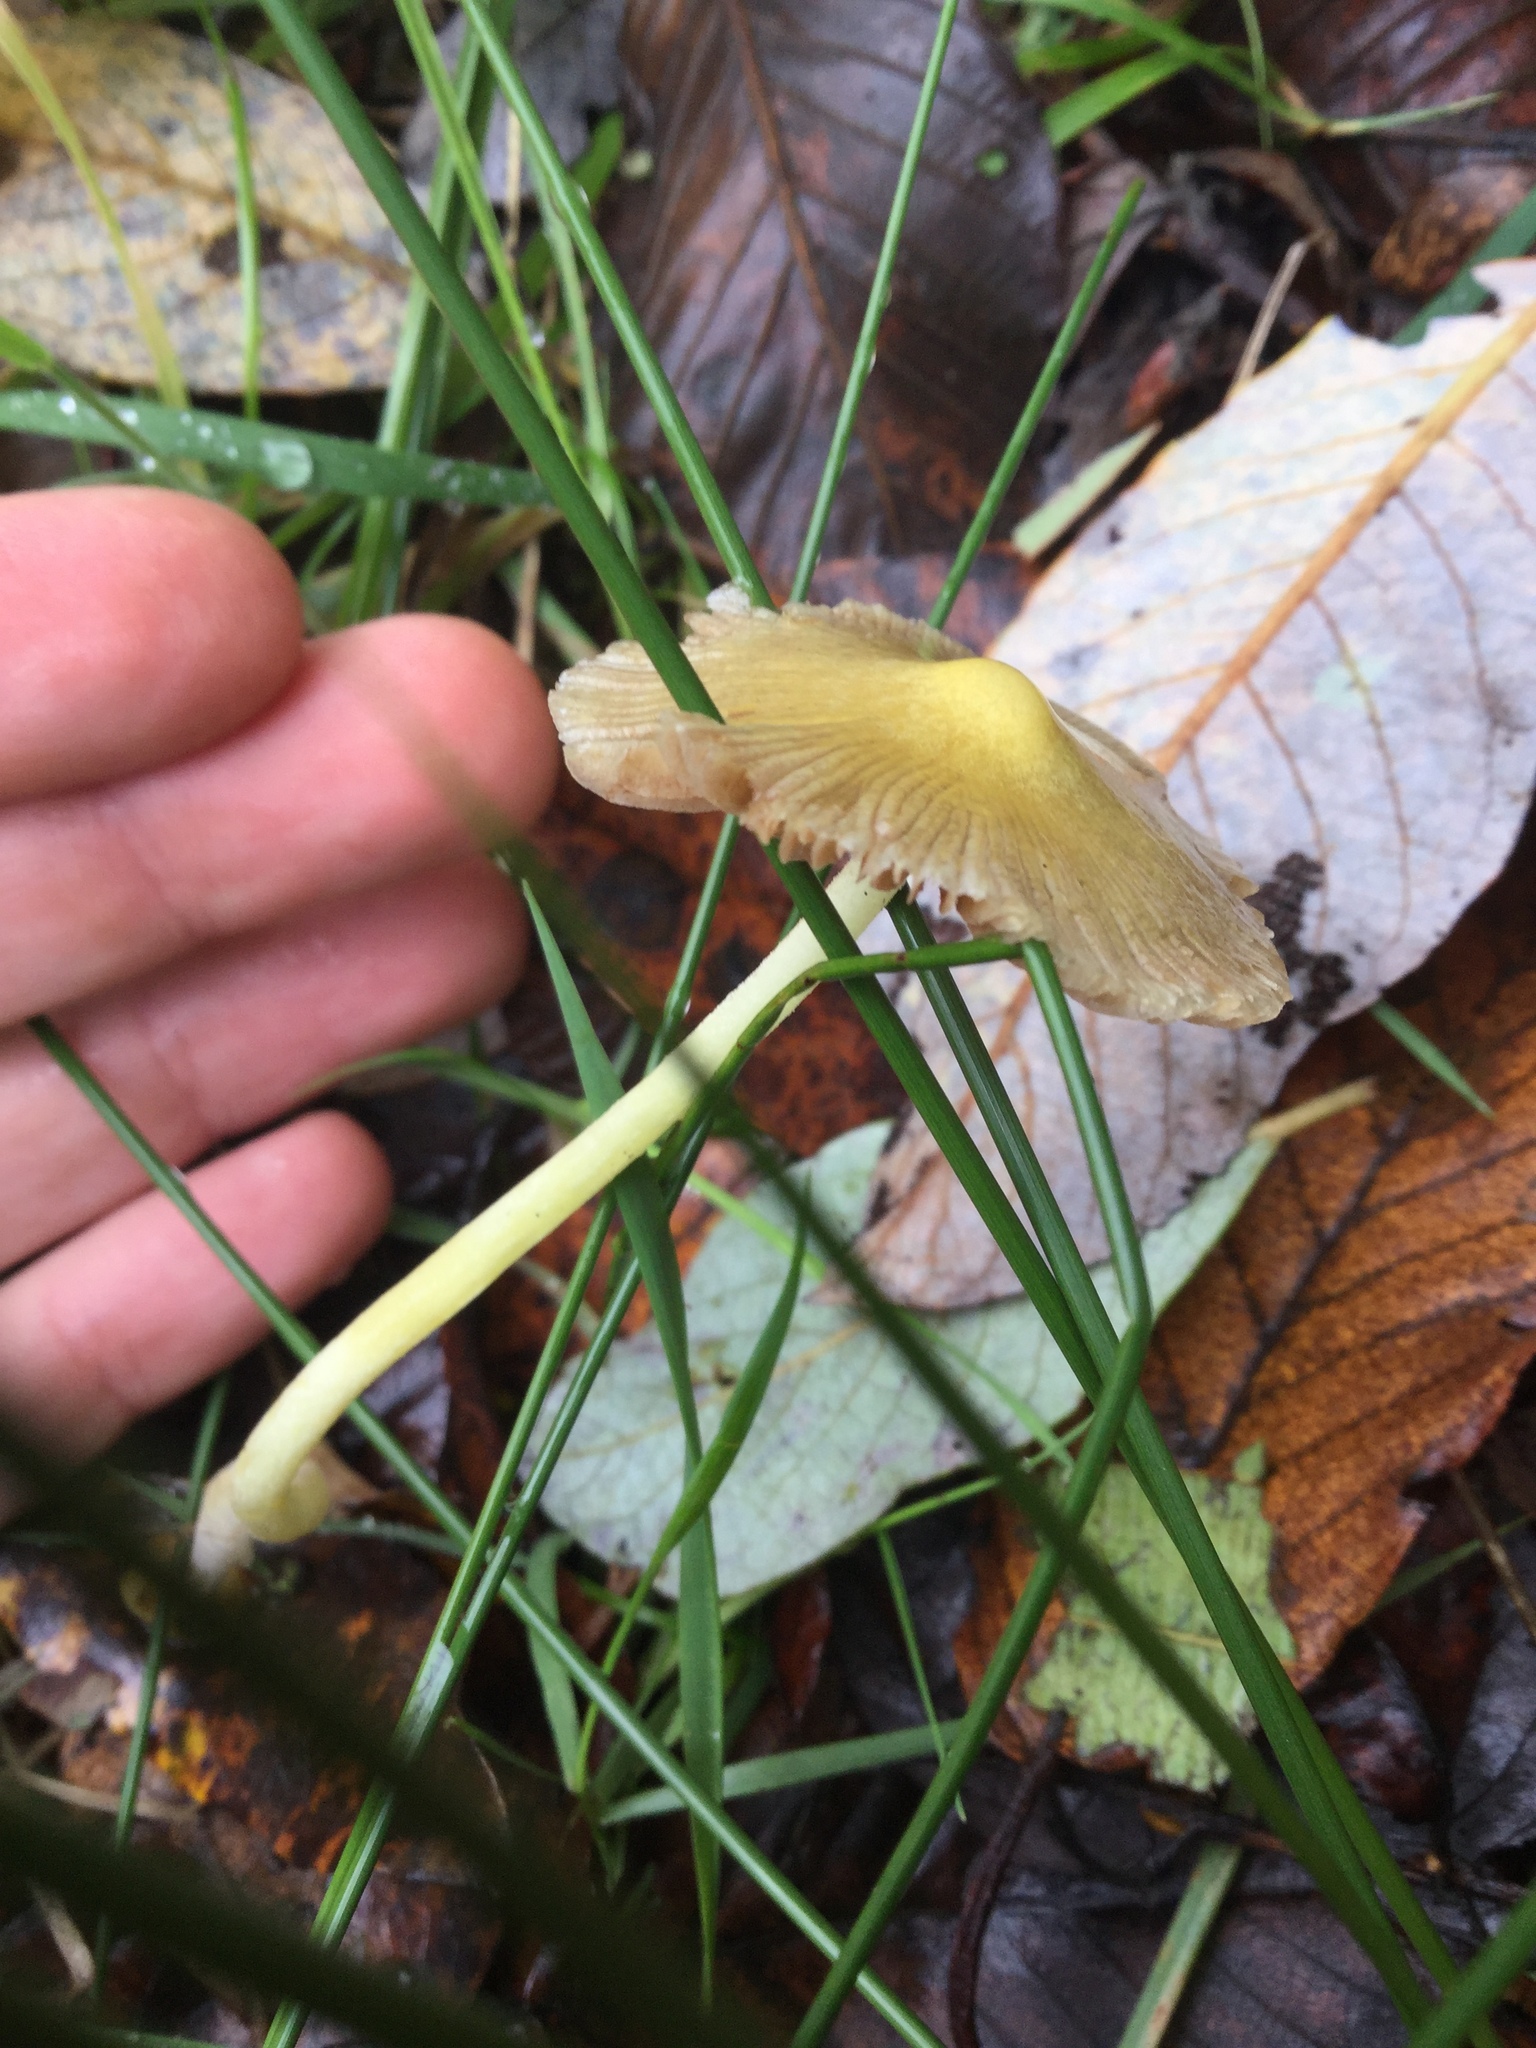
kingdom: Fungi
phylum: Basidiomycota
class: Agaricomycetes
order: Agaricales
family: Bolbitiaceae
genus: Bolbitius
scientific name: Bolbitius titubans
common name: Yellow fieldcap
